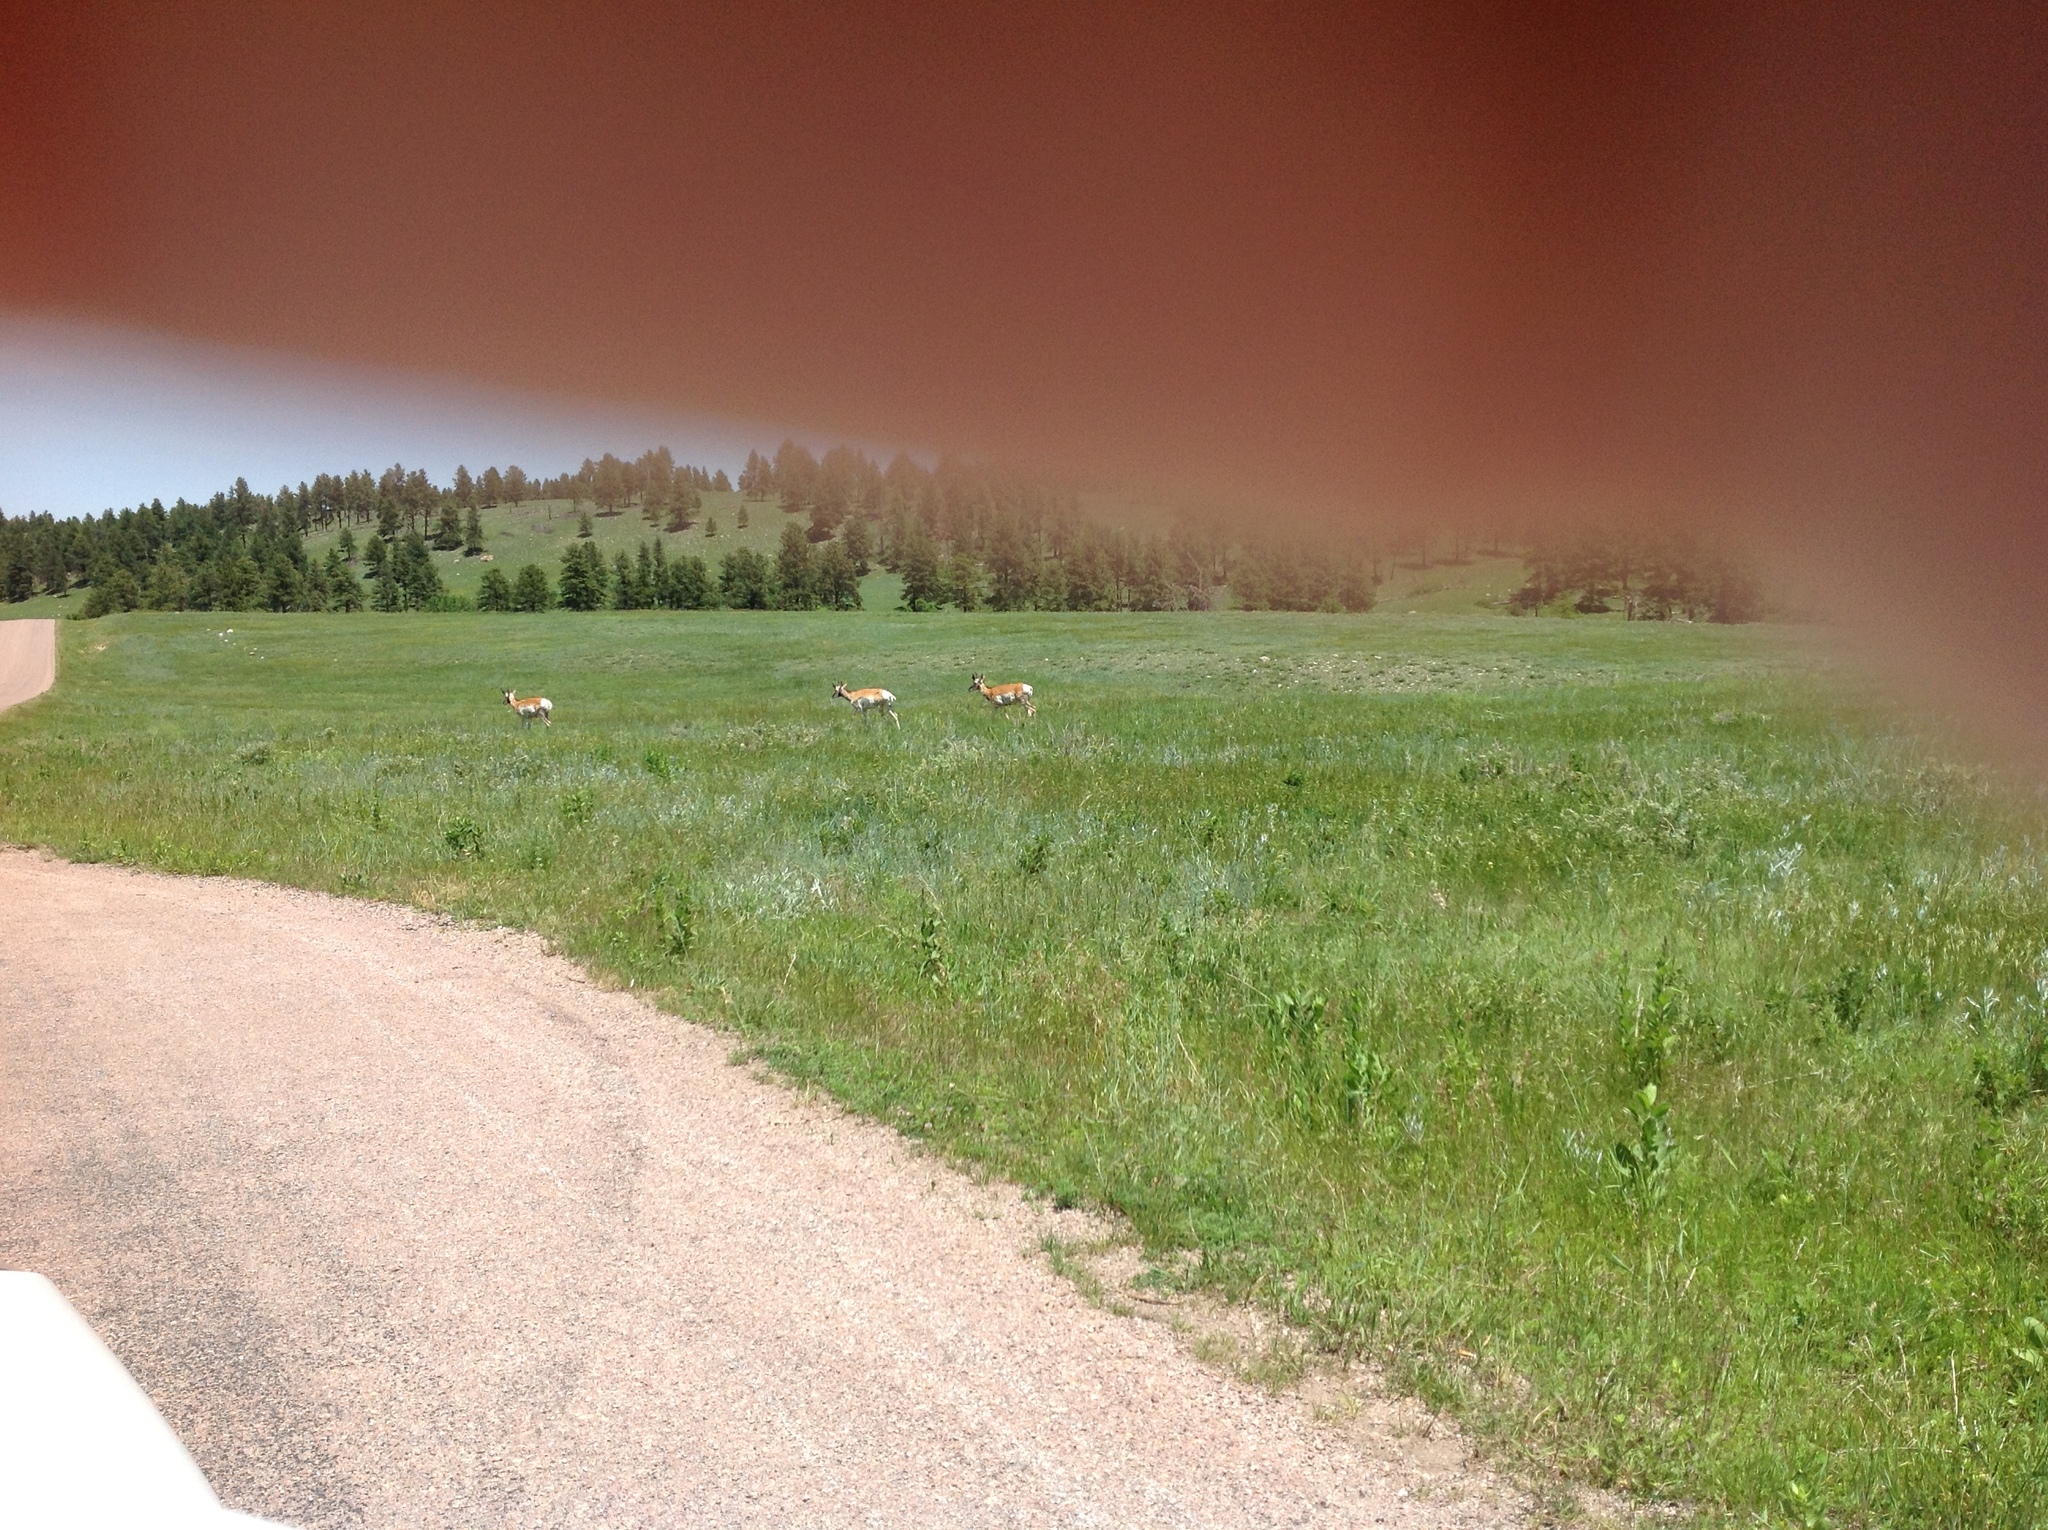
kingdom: Animalia
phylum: Chordata
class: Mammalia
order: Artiodactyla
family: Antilocapridae
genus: Antilocapra
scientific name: Antilocapra americana
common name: Pronghorn
